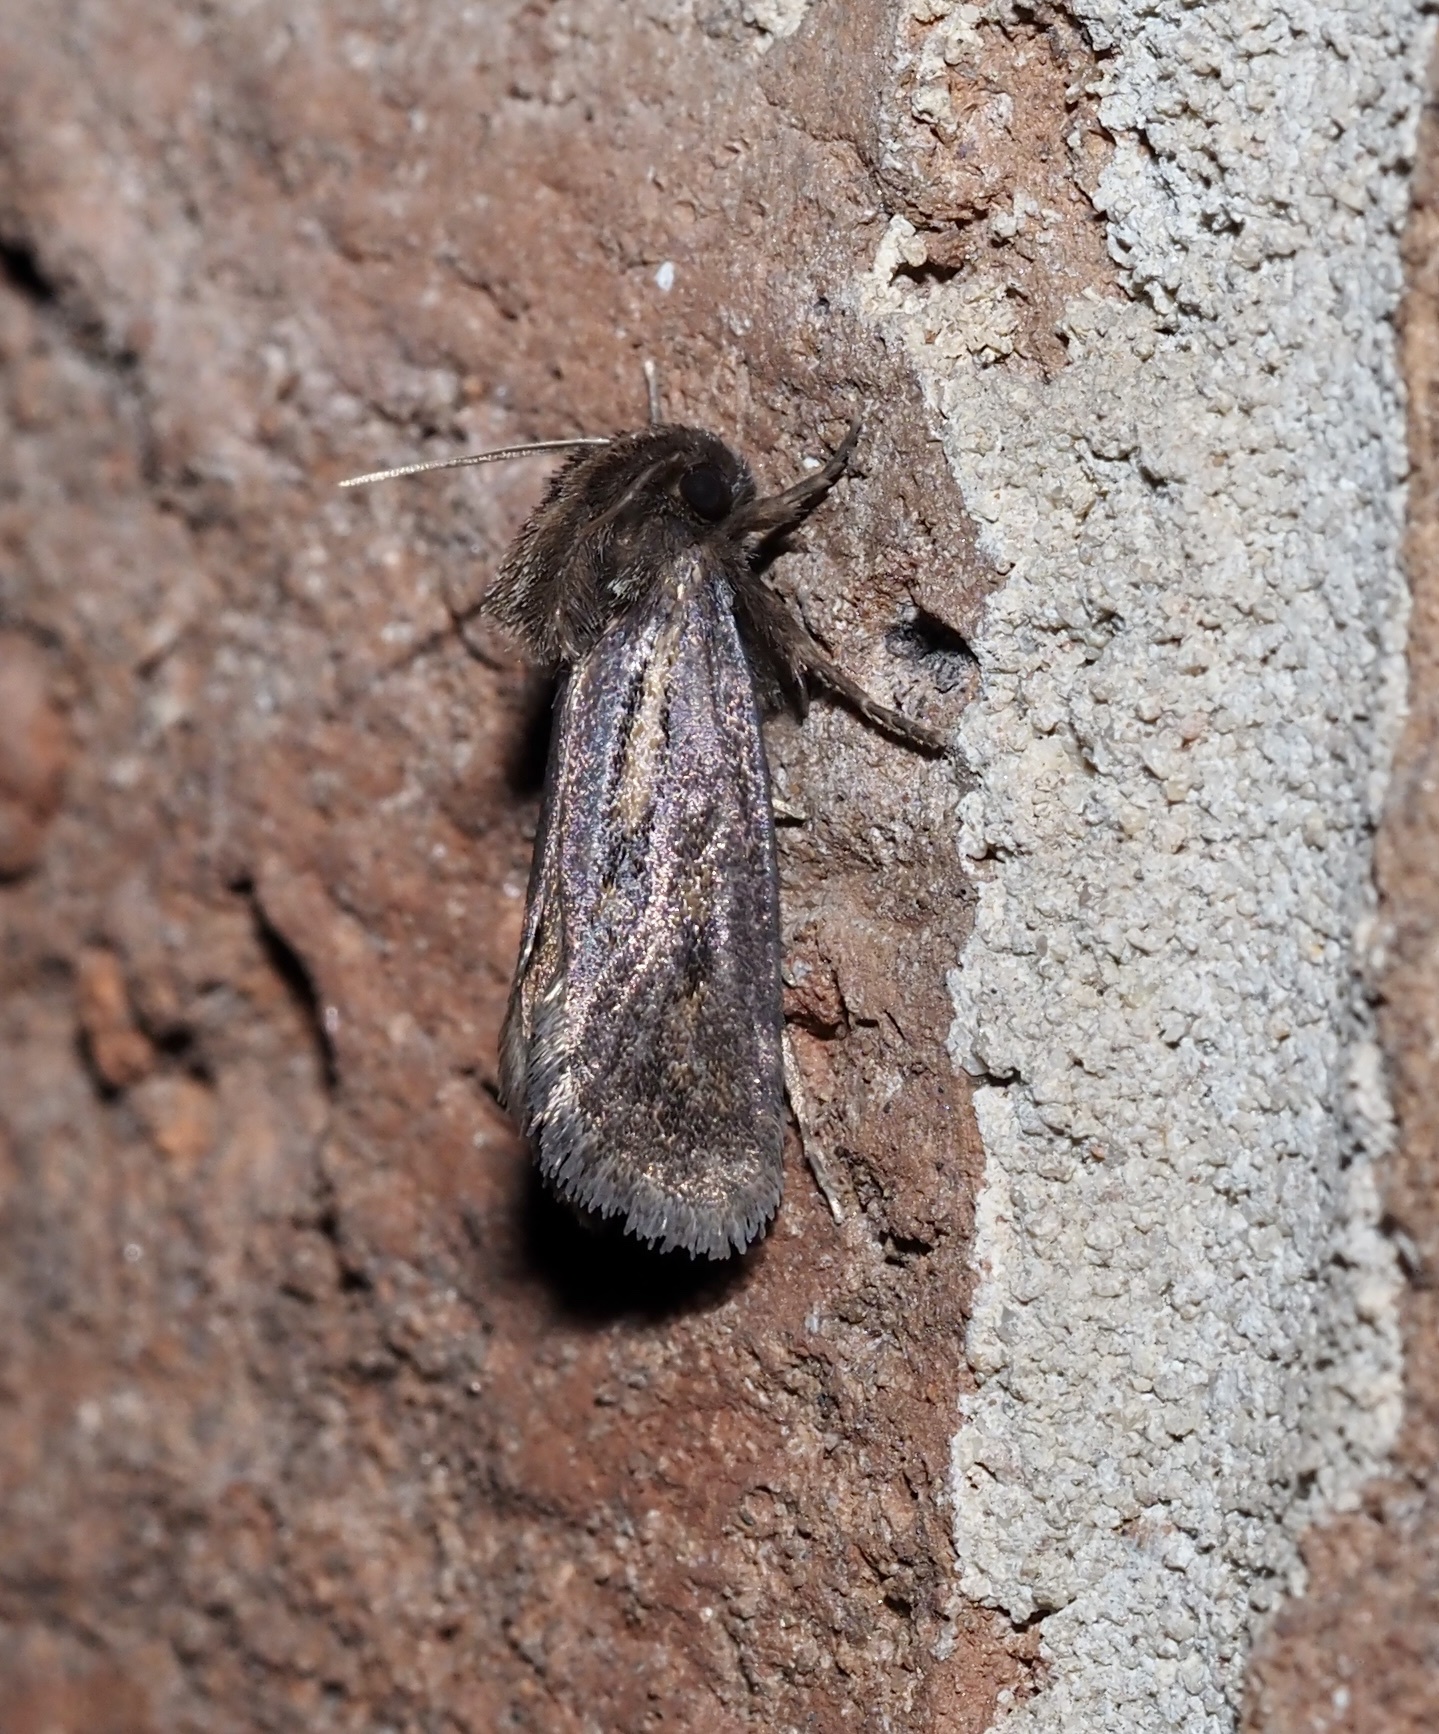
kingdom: Animalia
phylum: Arthropoda
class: Insecta
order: Lepidoptera
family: Tineidae
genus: Acrolophus
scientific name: Acrolophus popeanella
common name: Clemens' grass tubeworm moth
